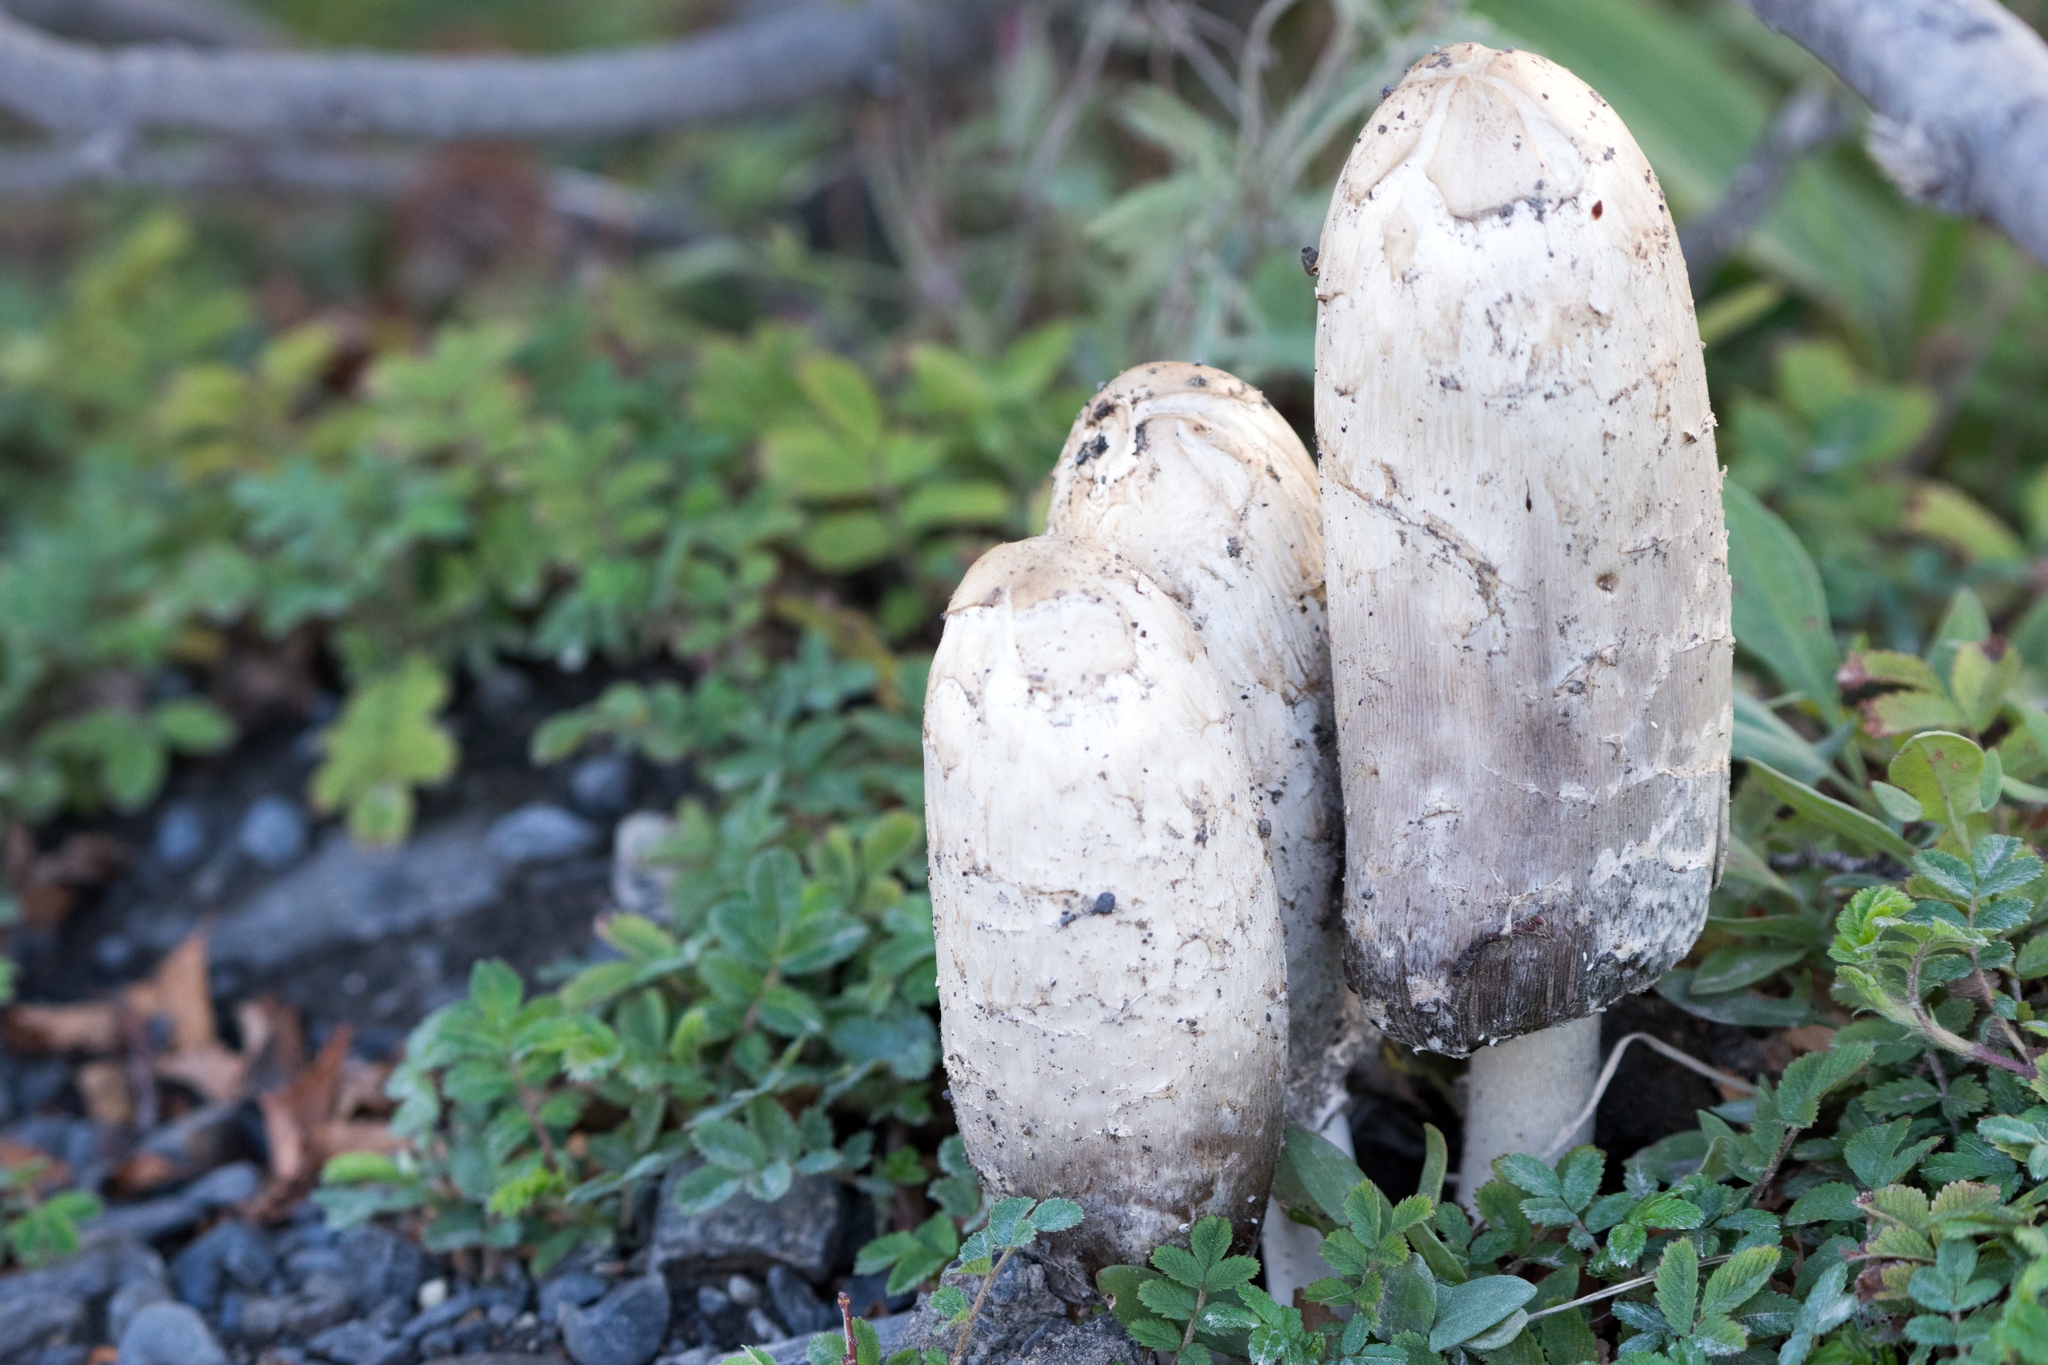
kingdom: Fungi
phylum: Basidiomycota
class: Agaricomycetes
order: Agaricales
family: Agaricaceae
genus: Coprinus
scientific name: Coprinus comatus
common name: Lawyer's wig
